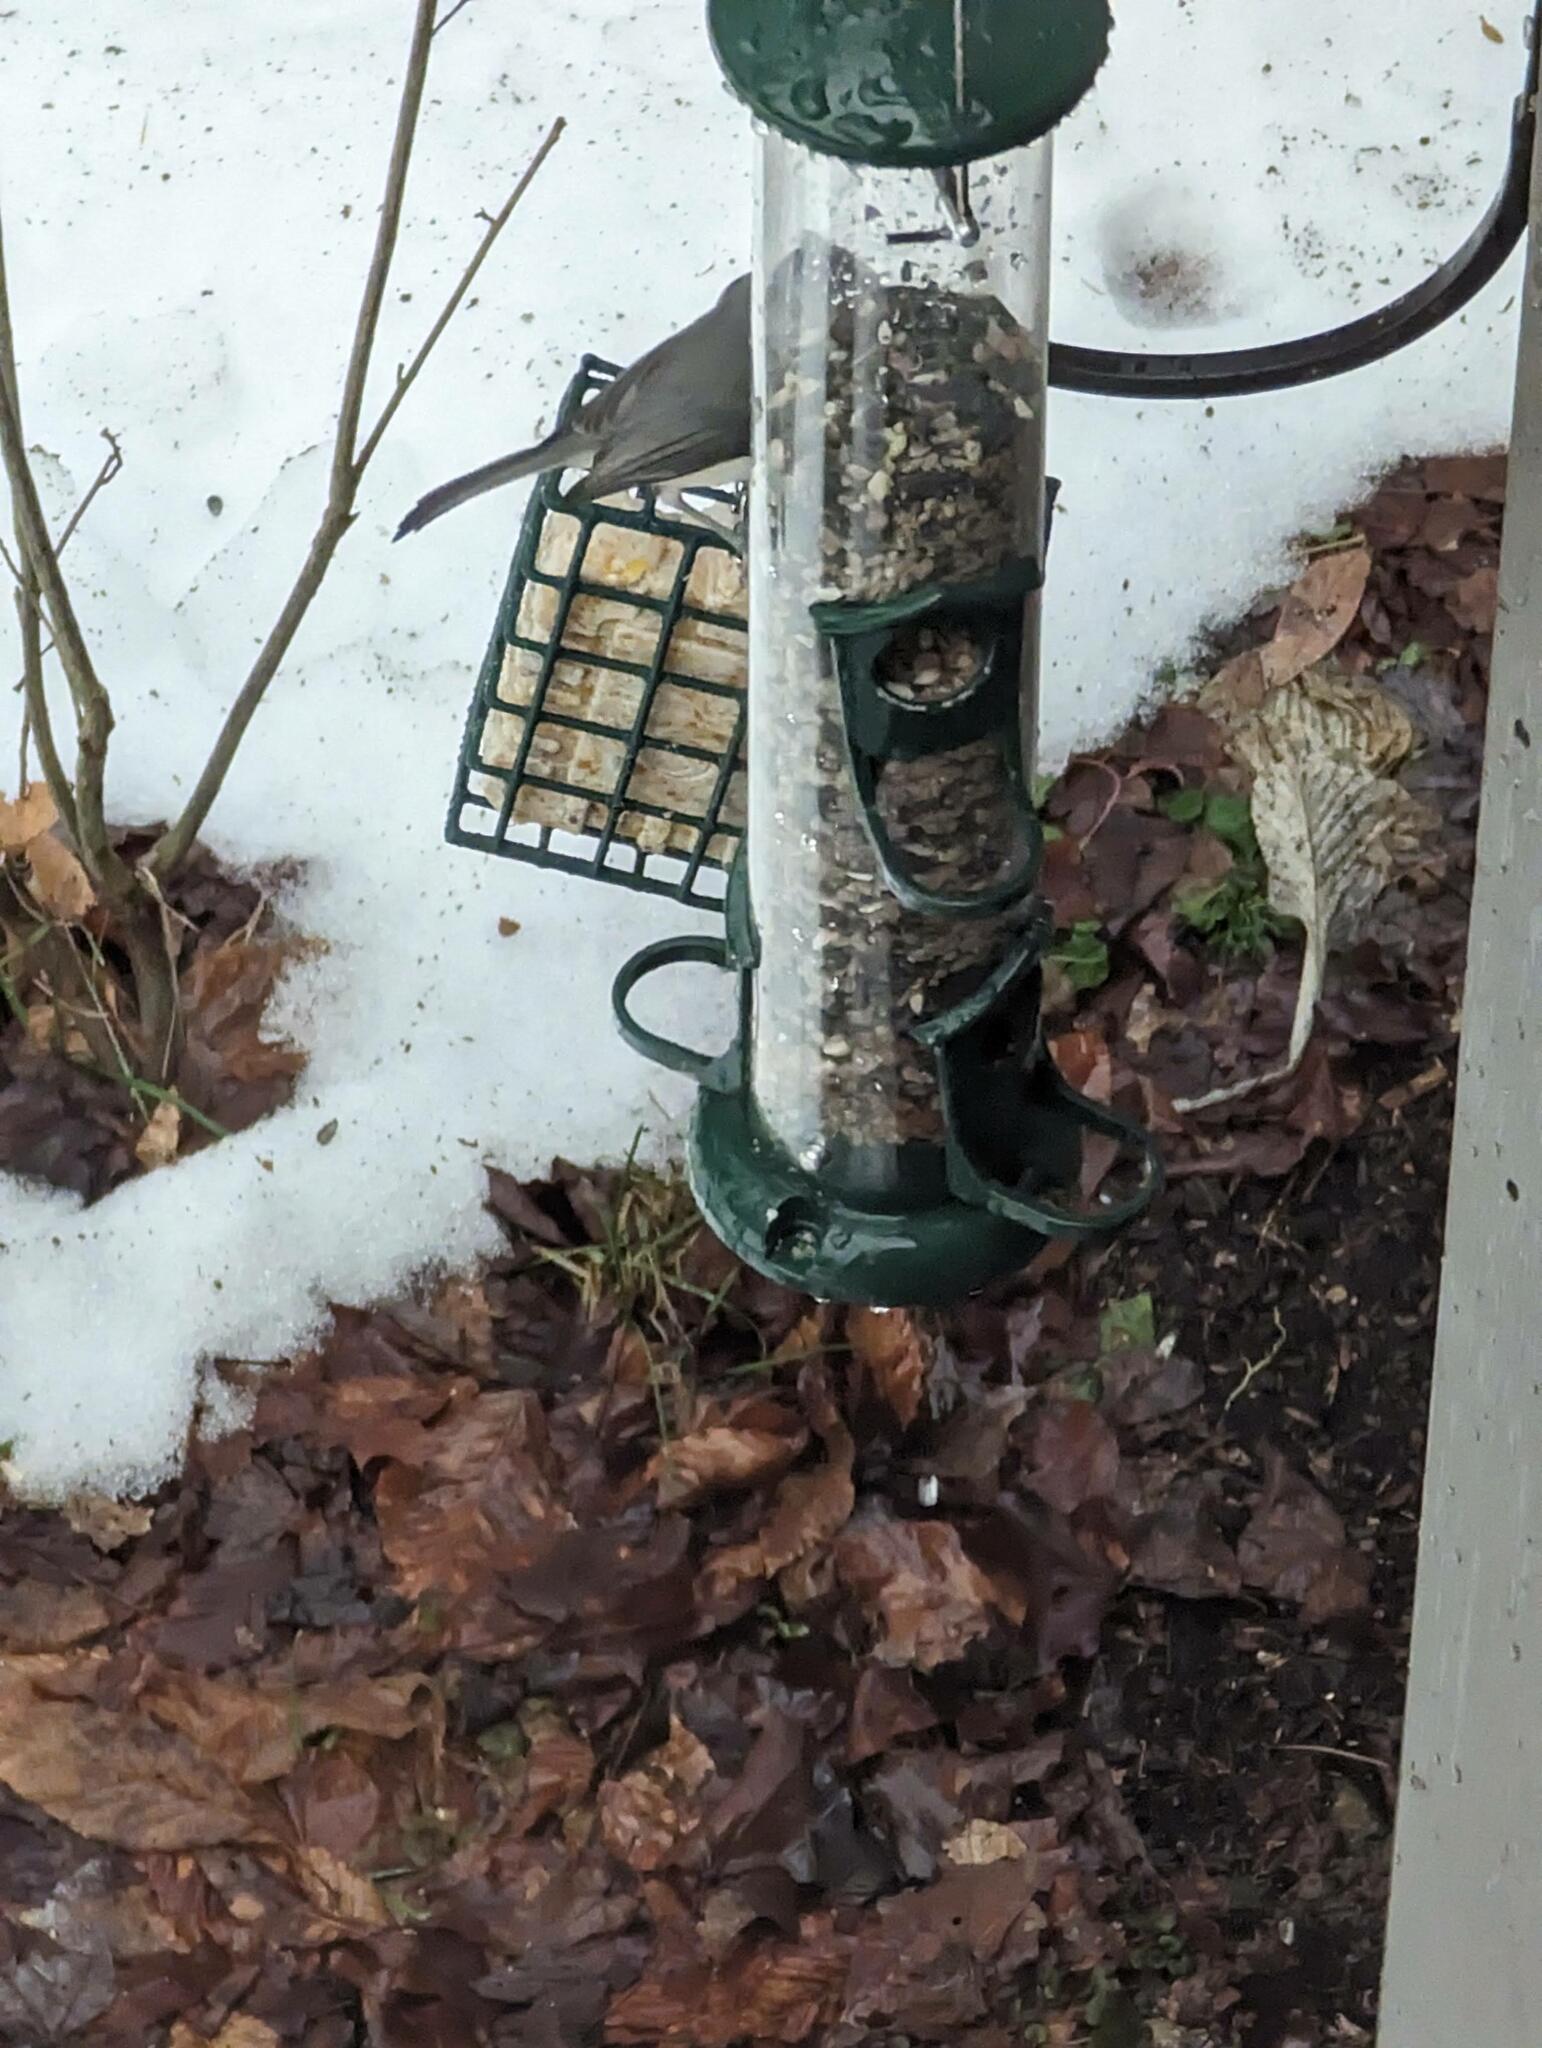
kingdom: Animalia
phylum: Chordata
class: Aves
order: Passeriformes
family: Paridae
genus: Baeolophus
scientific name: Baeolophus bicolor
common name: Tufted titmouse
